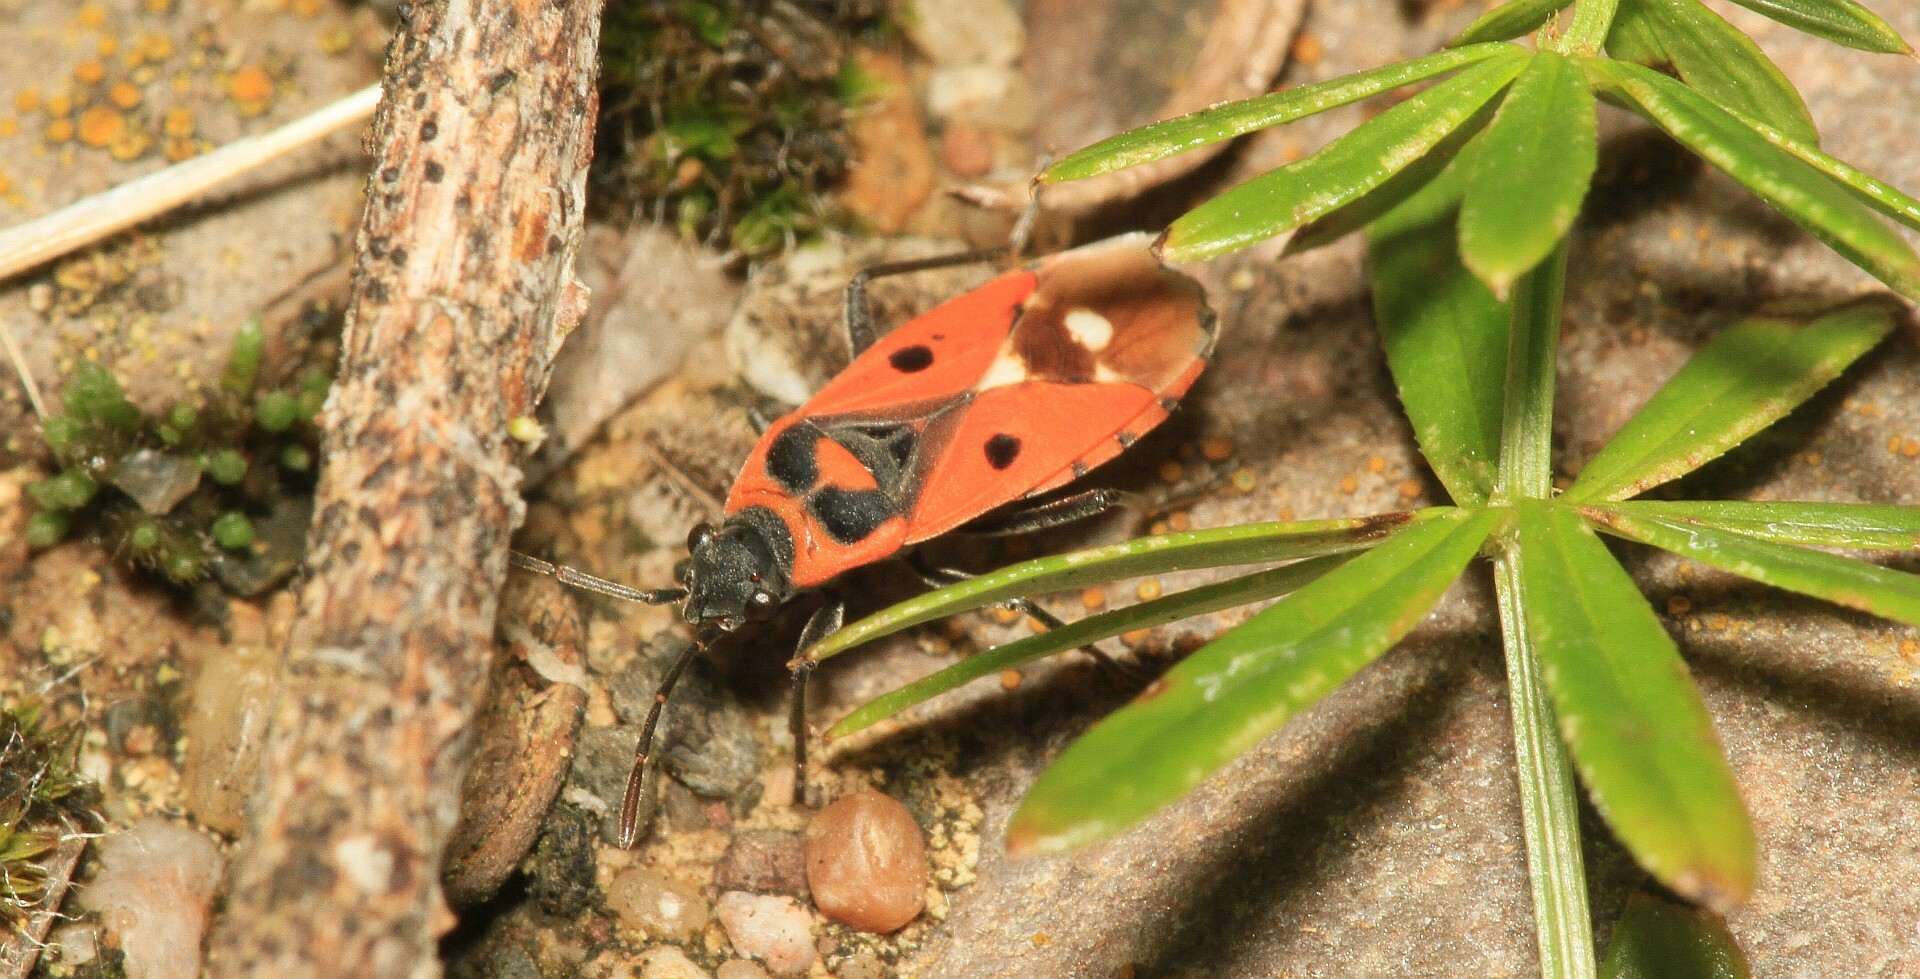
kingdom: Animalia
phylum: Arthropoda
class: Insecta
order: Hemiptera
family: Lygaeidae
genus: Melanocoryphus
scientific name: Melanocoryphus albomaculatus
